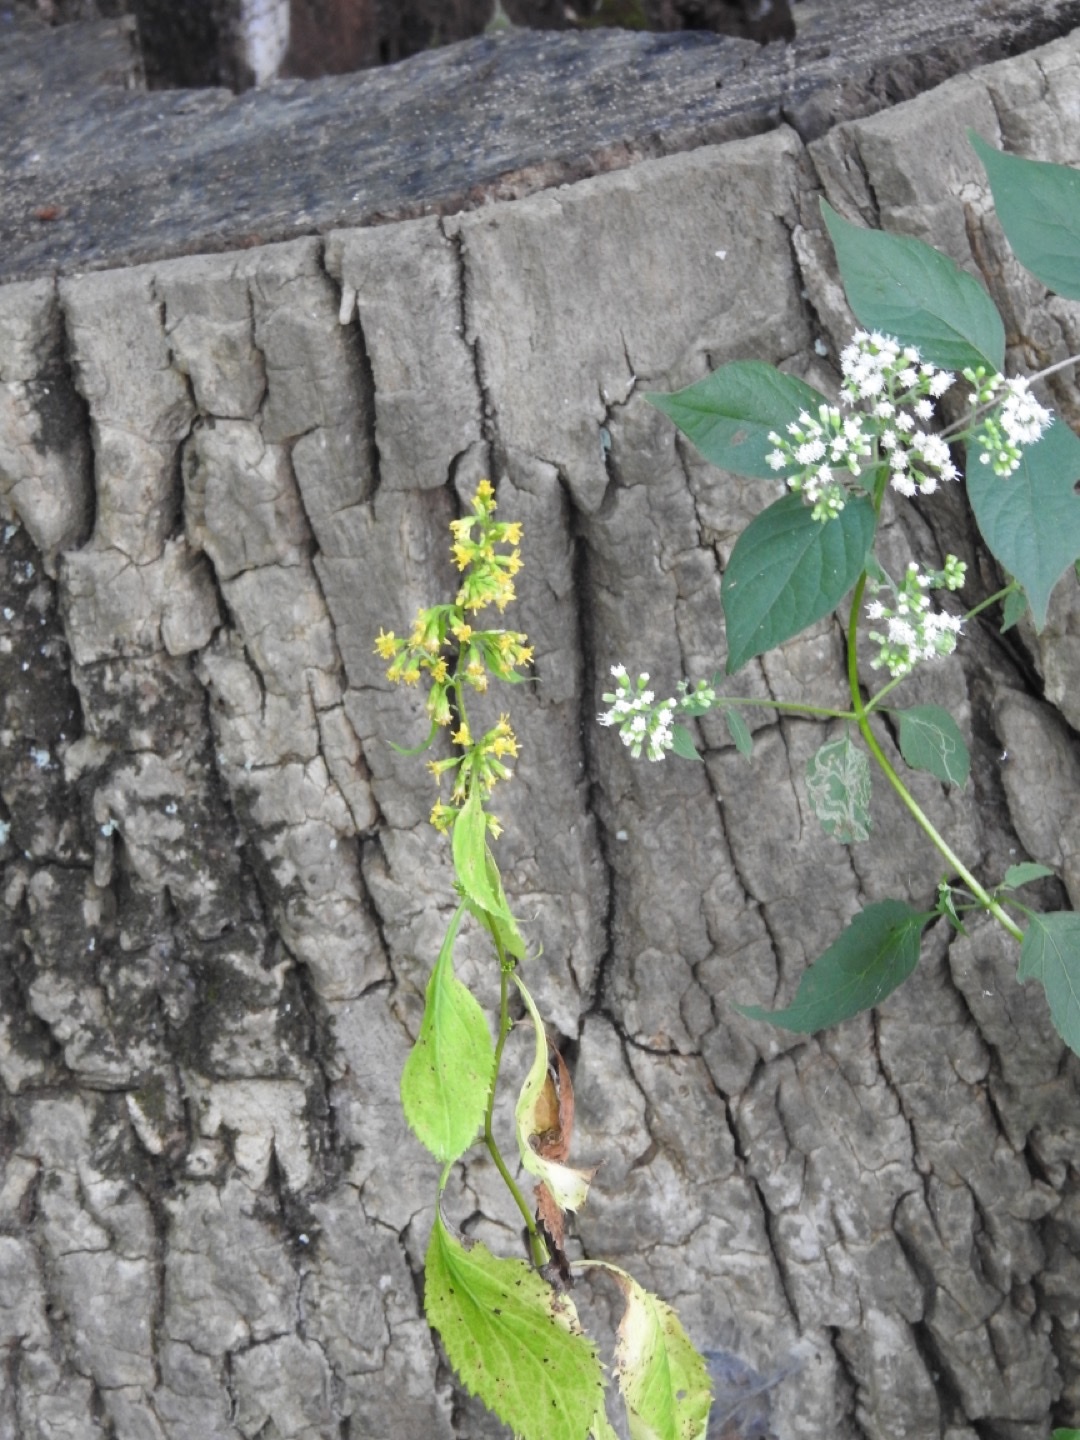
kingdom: Plantae
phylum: Tracheophyta
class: Magnoliopsida
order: Asterales
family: Asteraceae
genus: Solidago
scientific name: Solidago flexicaulis
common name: Zig-zag goldenrod
